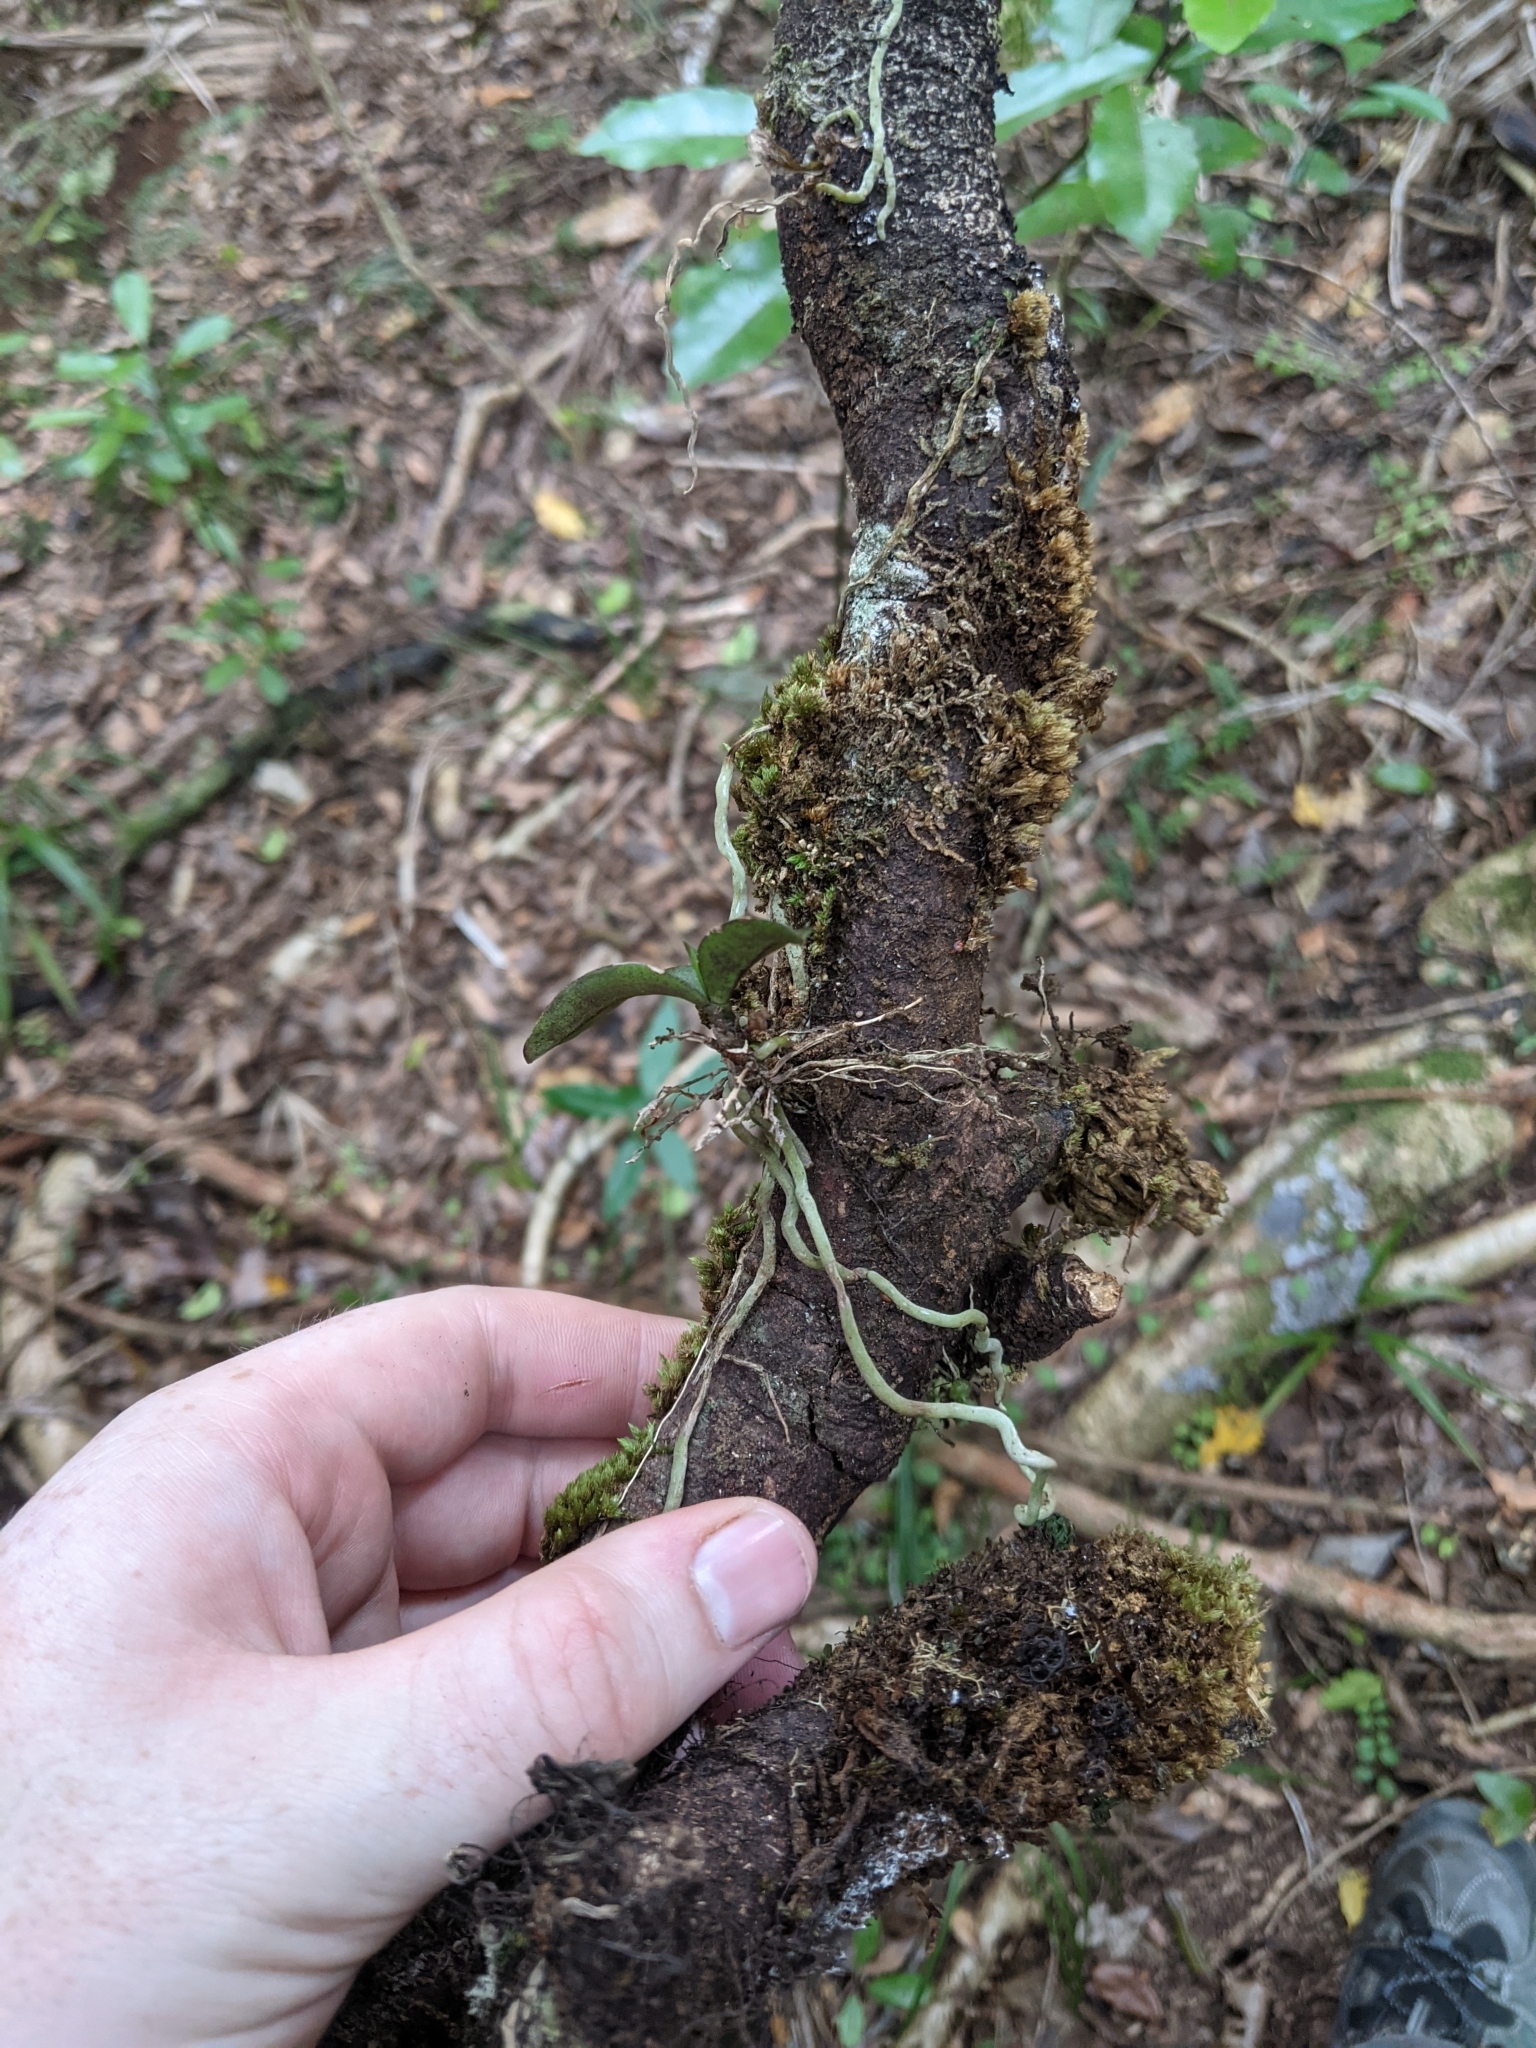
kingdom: Plantae
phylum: Tracheophyta
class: Liliopsida
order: Asparagales
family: Orchidaceae
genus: Drymoanthus
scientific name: Drymoanthus adversus
